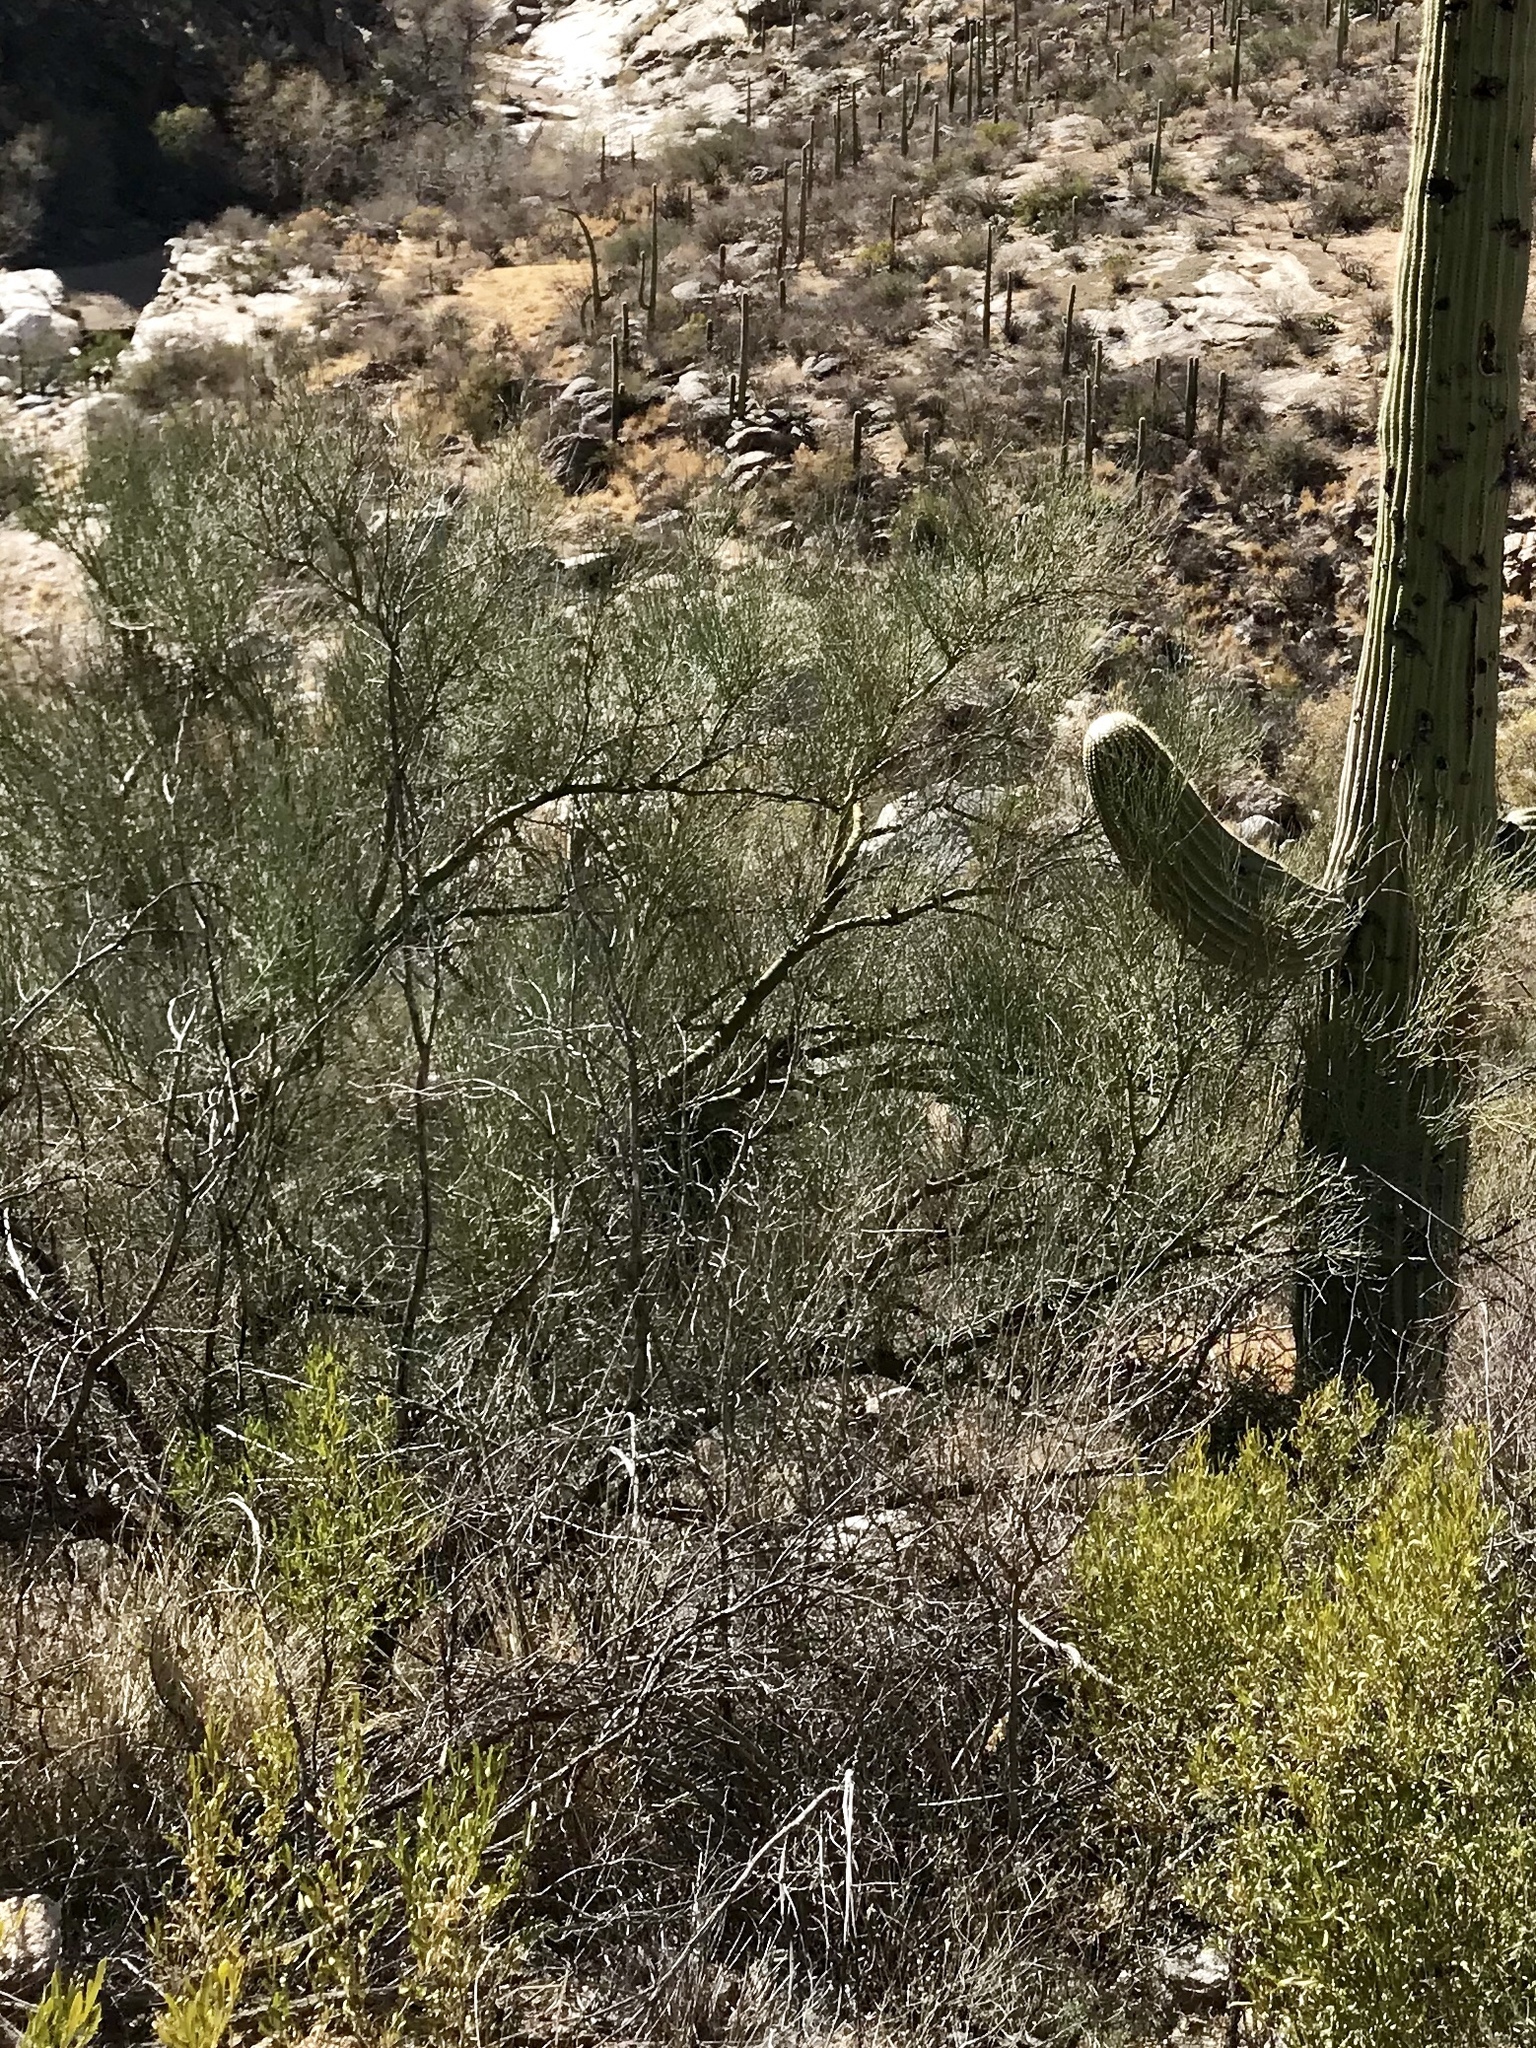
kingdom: Plantae
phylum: Tracheophyta
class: Magnoliopsida
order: Fabales
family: Fabaceae
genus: Parkinsonia
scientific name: Parkinsonia microphylla
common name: Yellow paloverde
